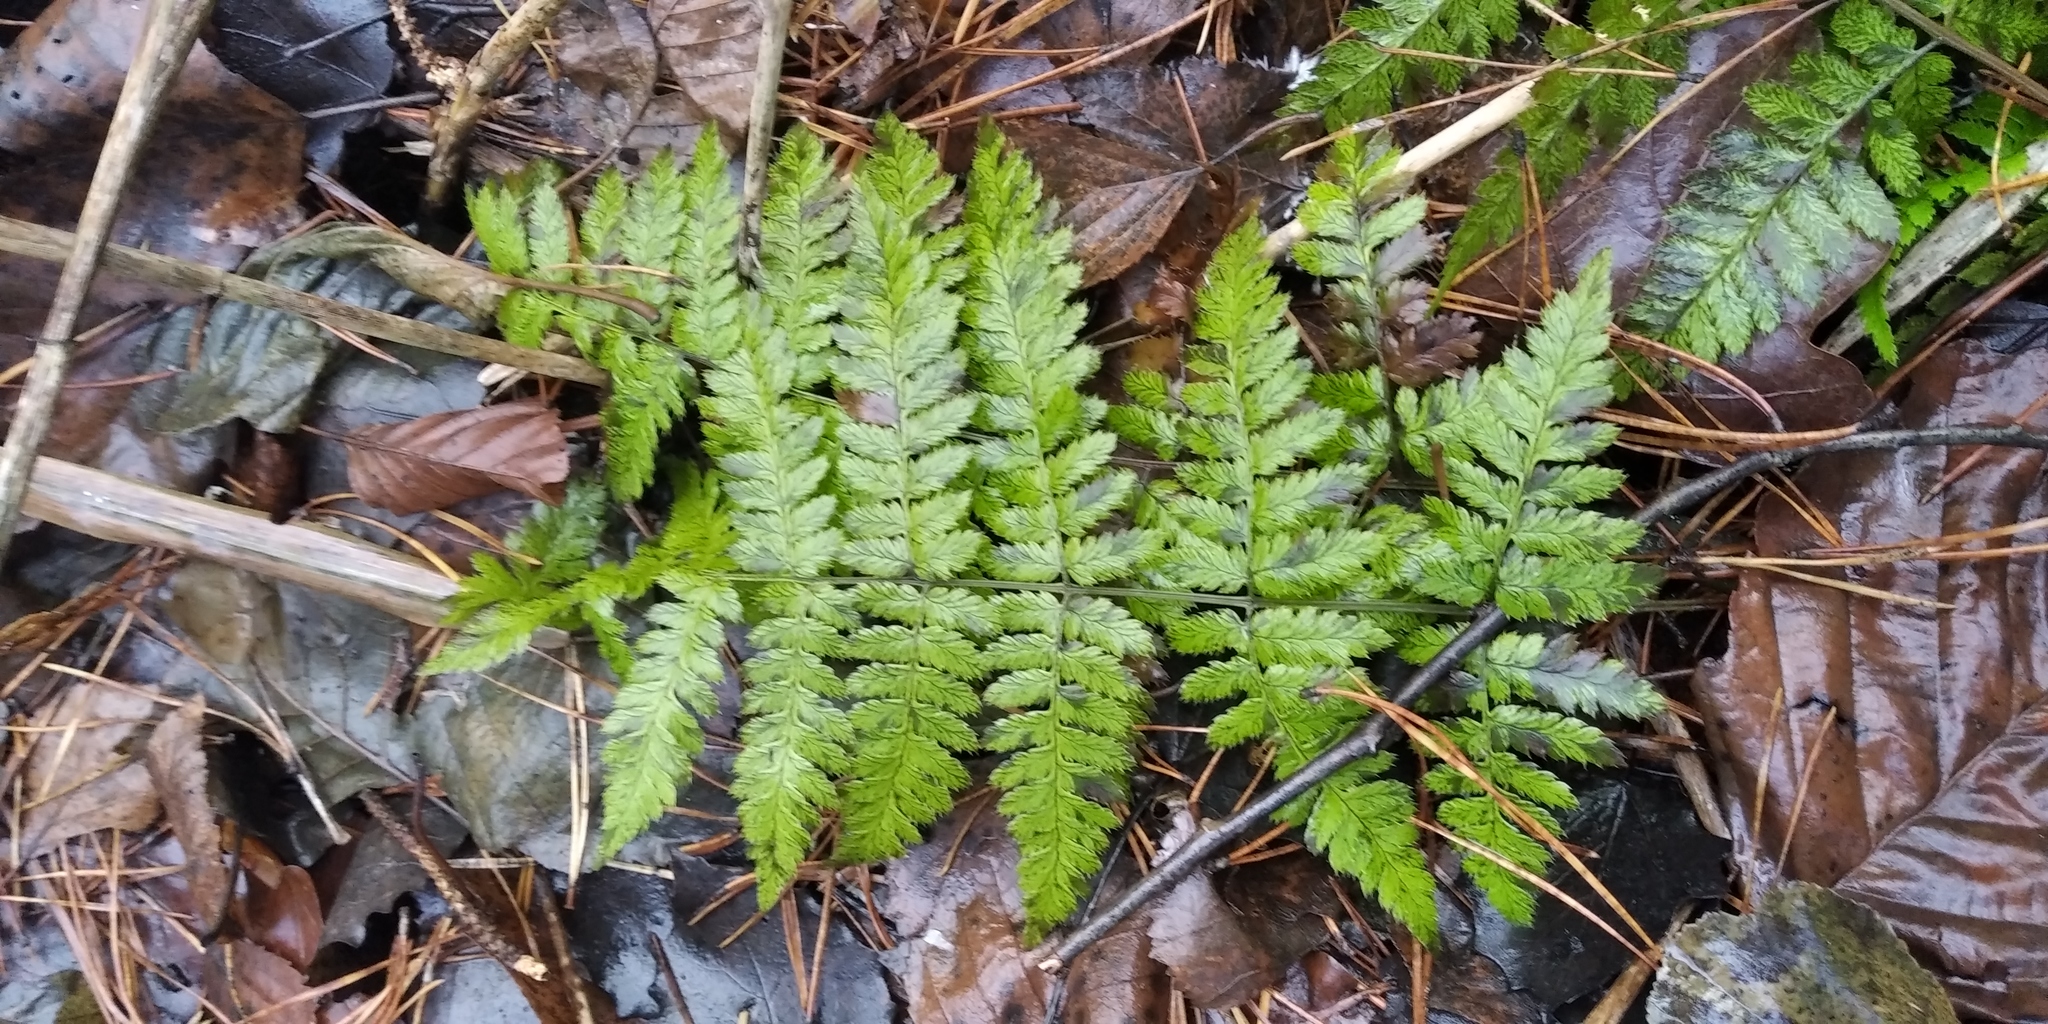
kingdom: Plantae
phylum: Tracheophyta
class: Polypodiopsida
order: Polypodiales
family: Dryopteridaceae
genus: Dryopteris
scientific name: Dryopteris carthusiana
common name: Narrow buckler-fern
